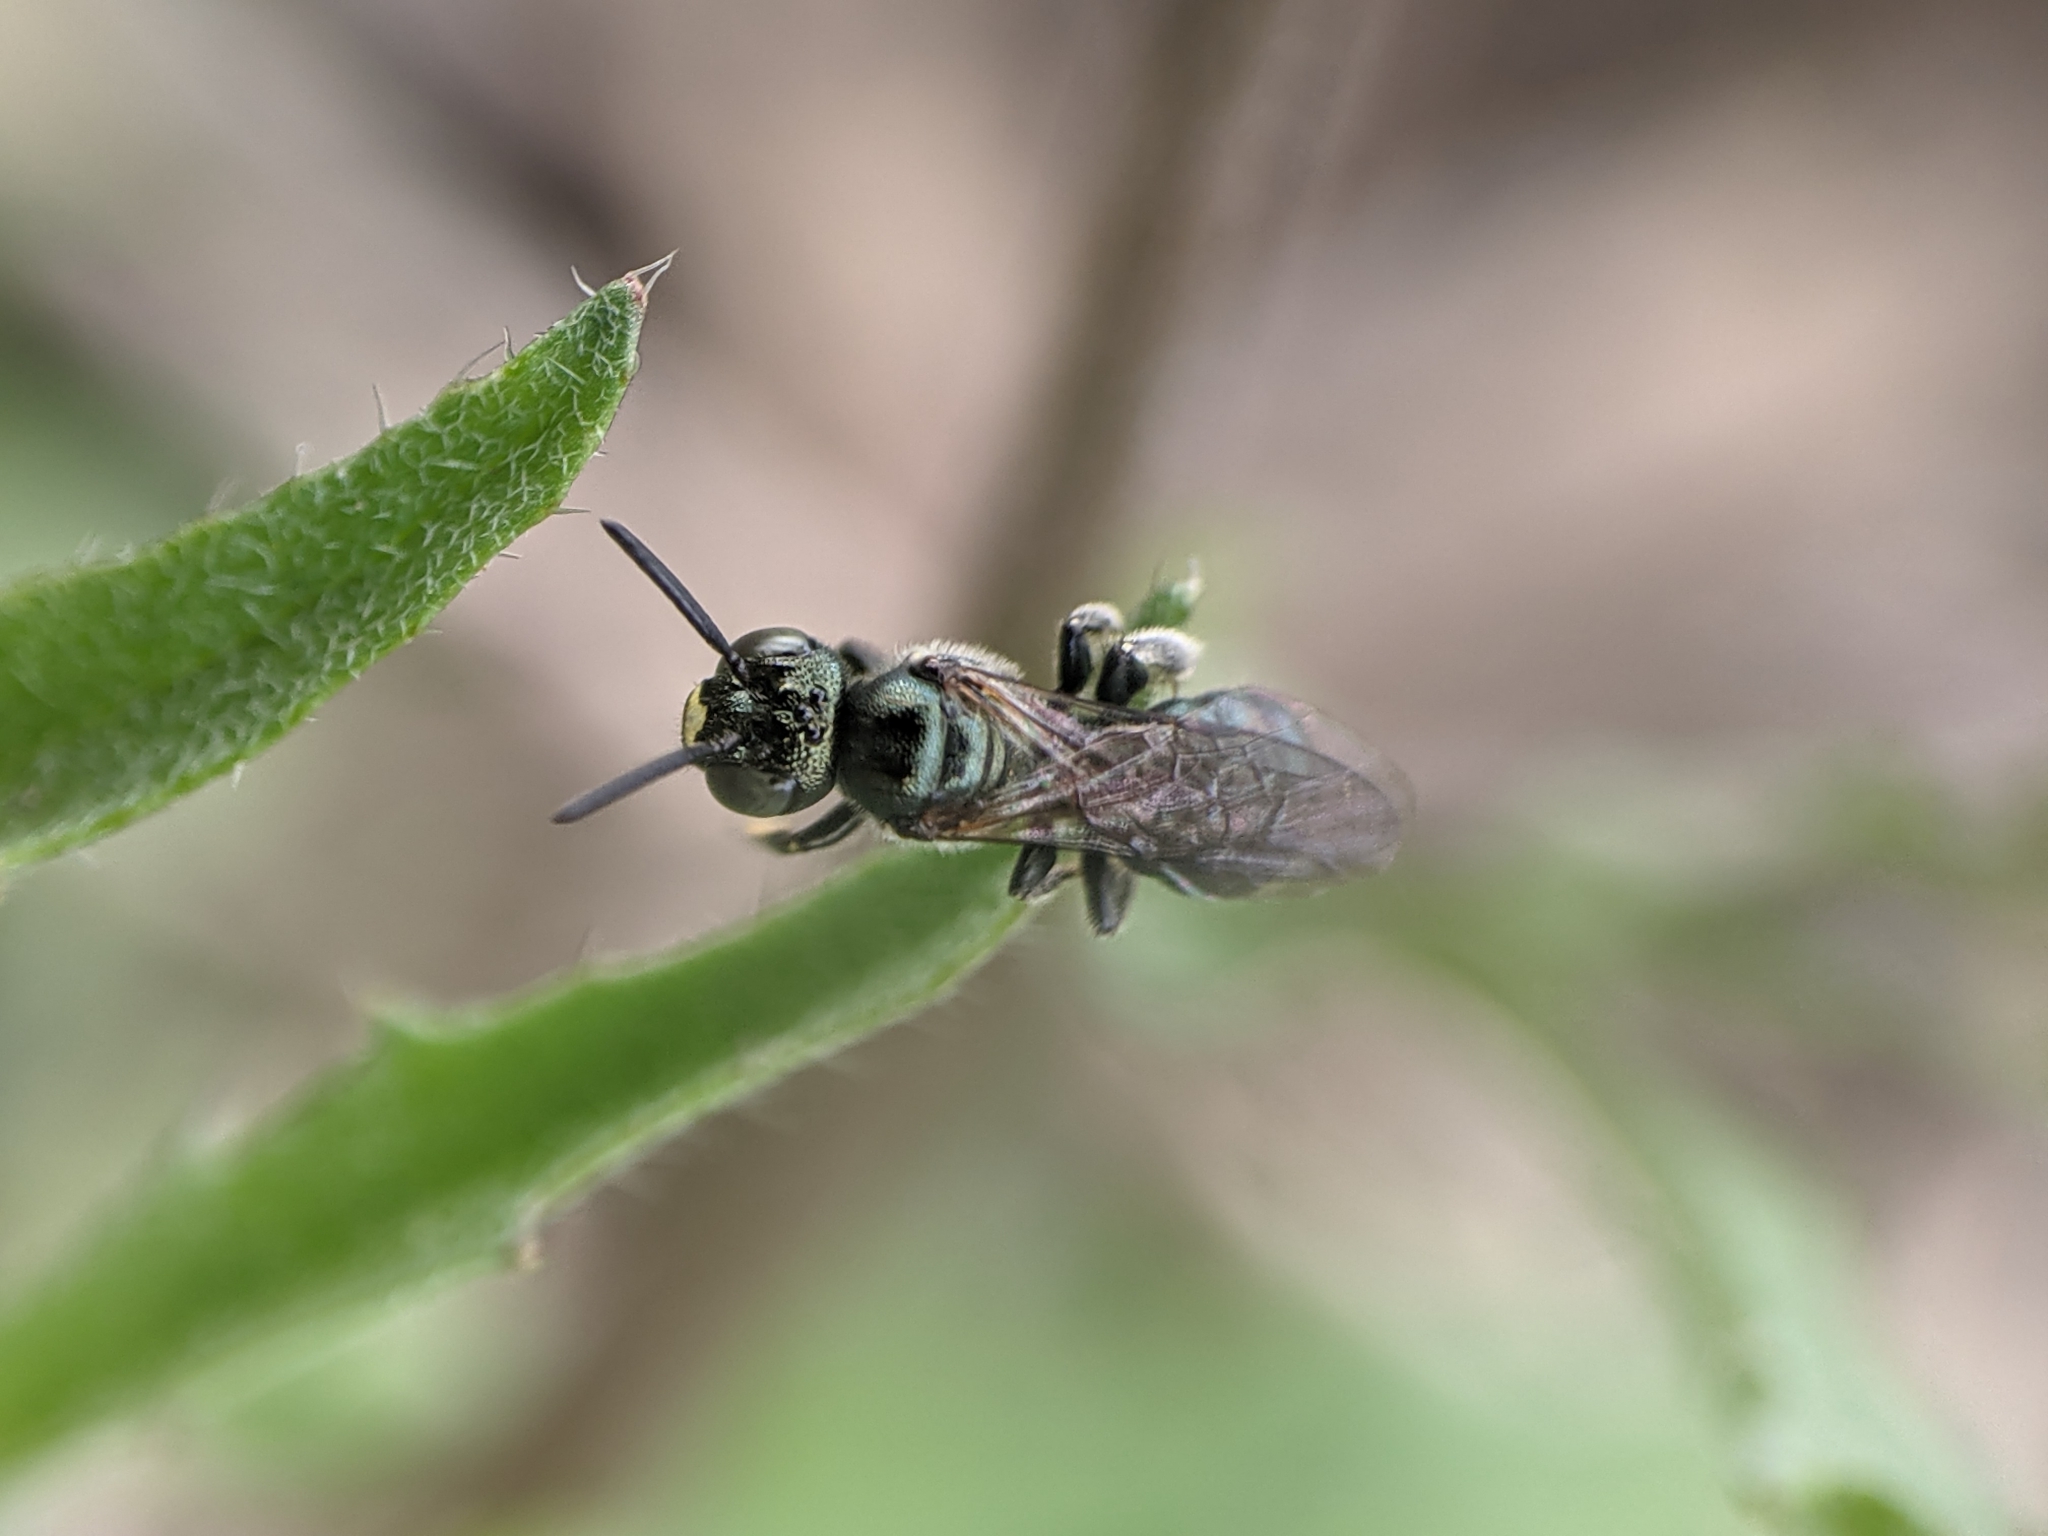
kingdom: Animalia
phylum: Arthropoda
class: Insecta
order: Hymenoptera
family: Apidae
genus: Zadontomerus
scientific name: Zadontomerus
